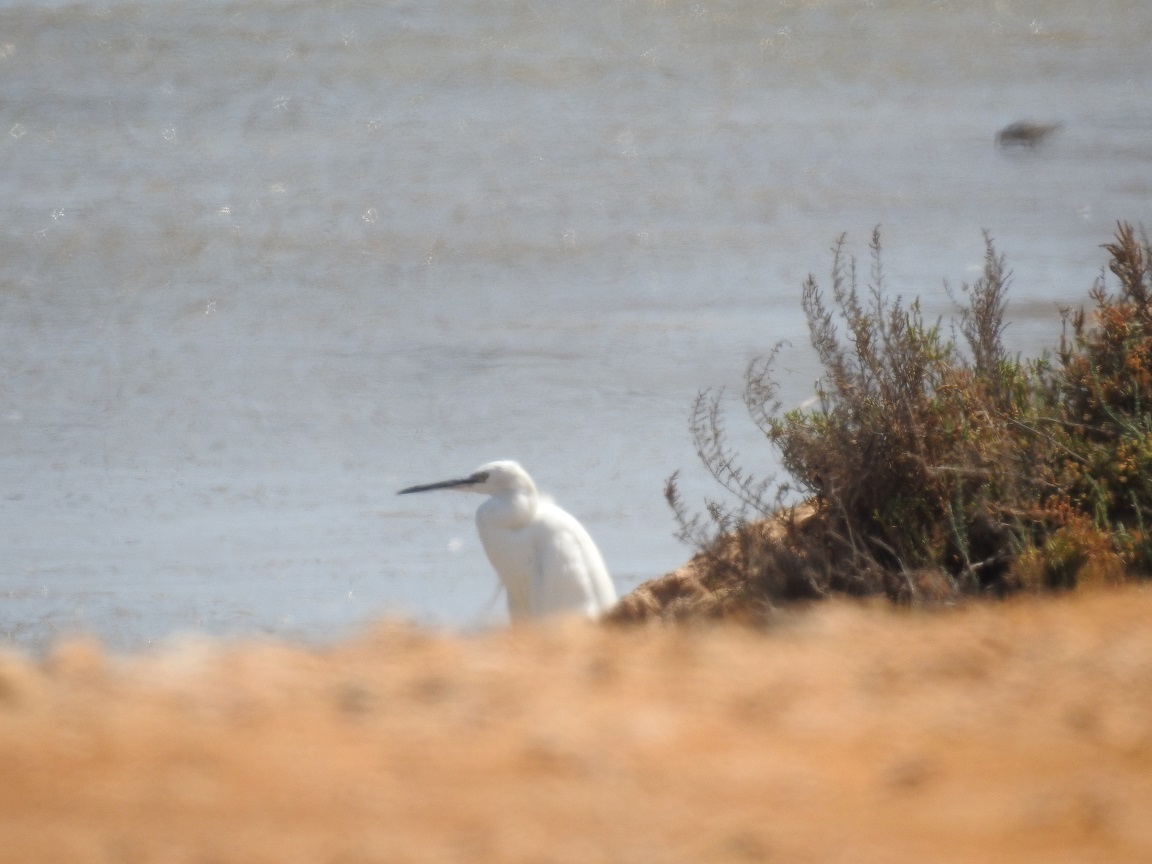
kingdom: Animalia
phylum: Chordata
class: Aves
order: Pelecaniformes
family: Ardeidae
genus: Egretta
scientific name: Egretta garzetta
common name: Little egret
